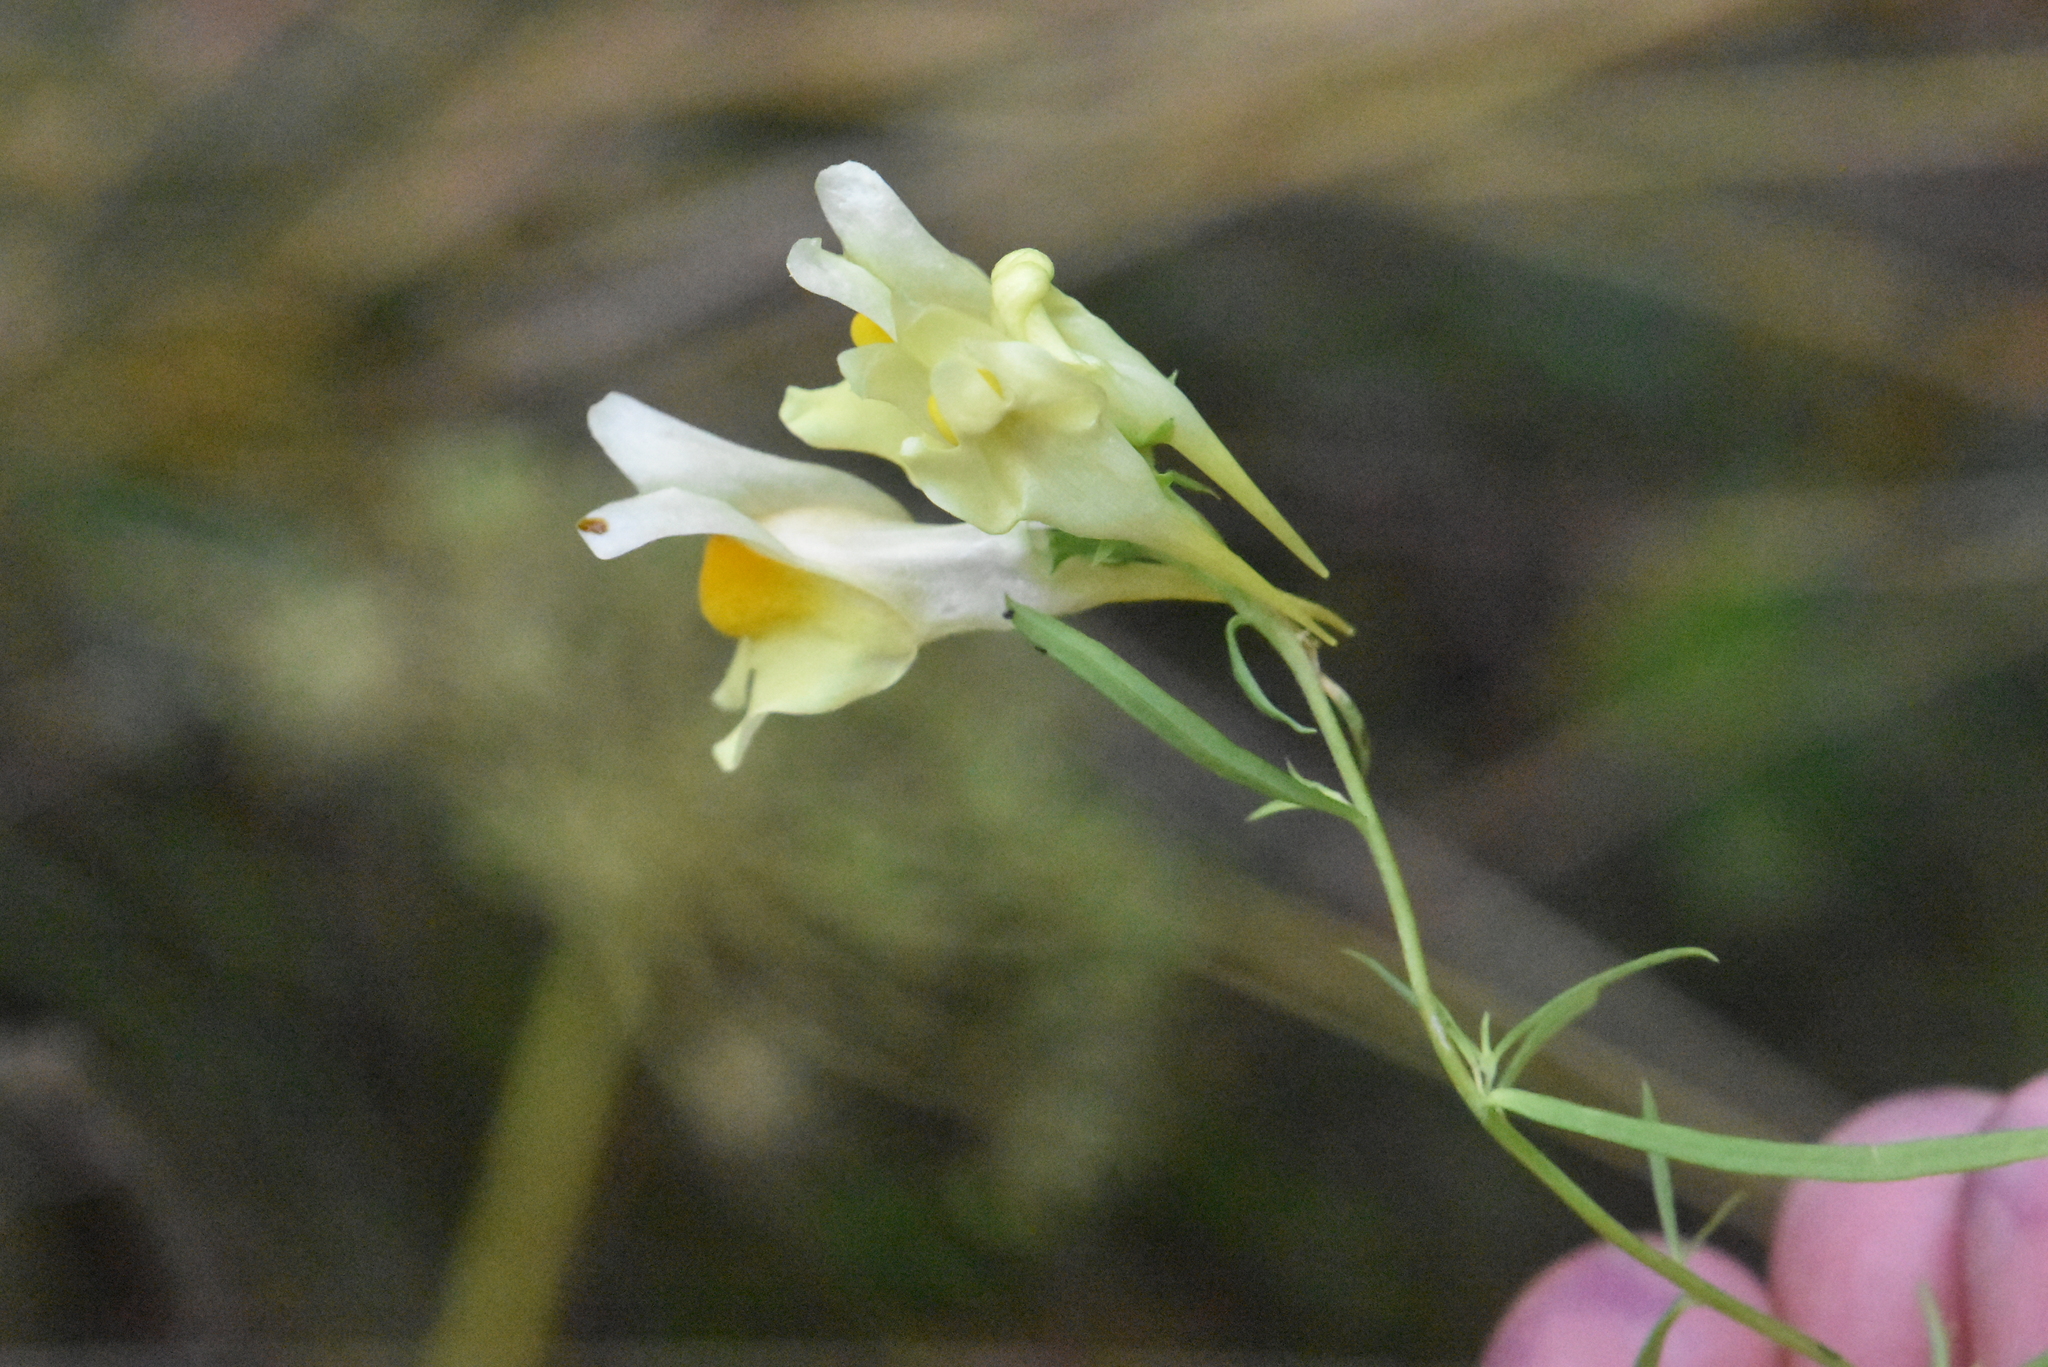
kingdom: Plantae
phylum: Tracheophyta
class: Magnoliopsida
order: Lamiales
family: Plantaginaceae
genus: Linaria
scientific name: Linaria vulgaris
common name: Butter and eggs
